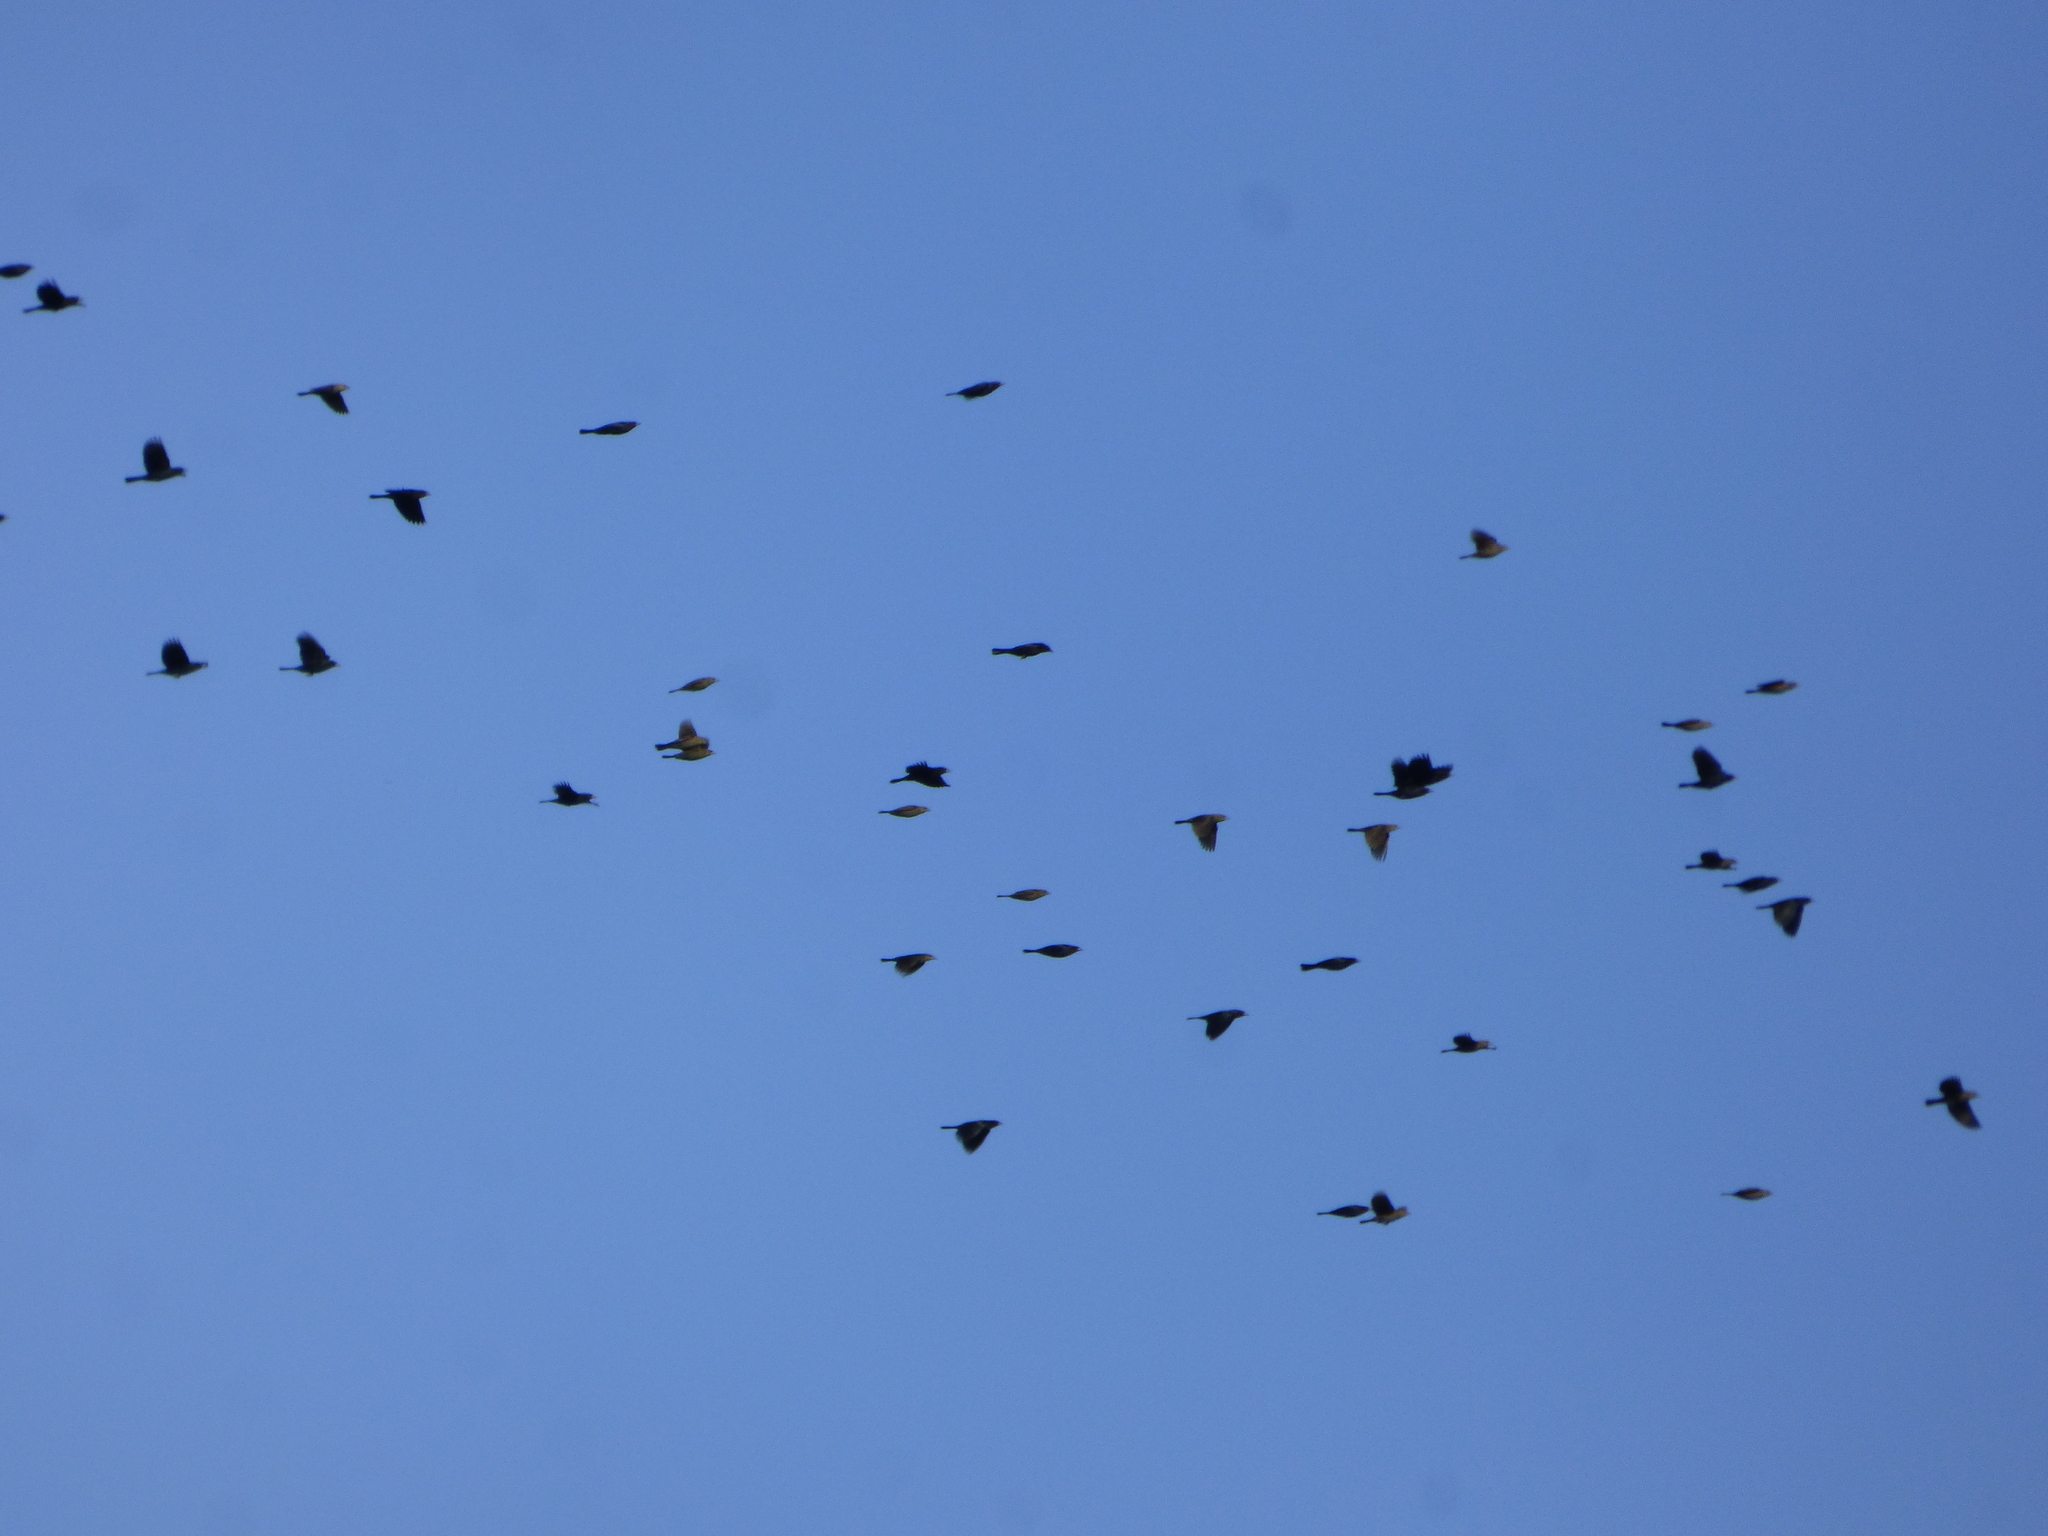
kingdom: Animalia
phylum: Chordata
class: Aves
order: Passeriformes
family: Icteridae
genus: Chrysomus
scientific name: Chrysomus ruficapillus
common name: Chestnut-capped blackbird
